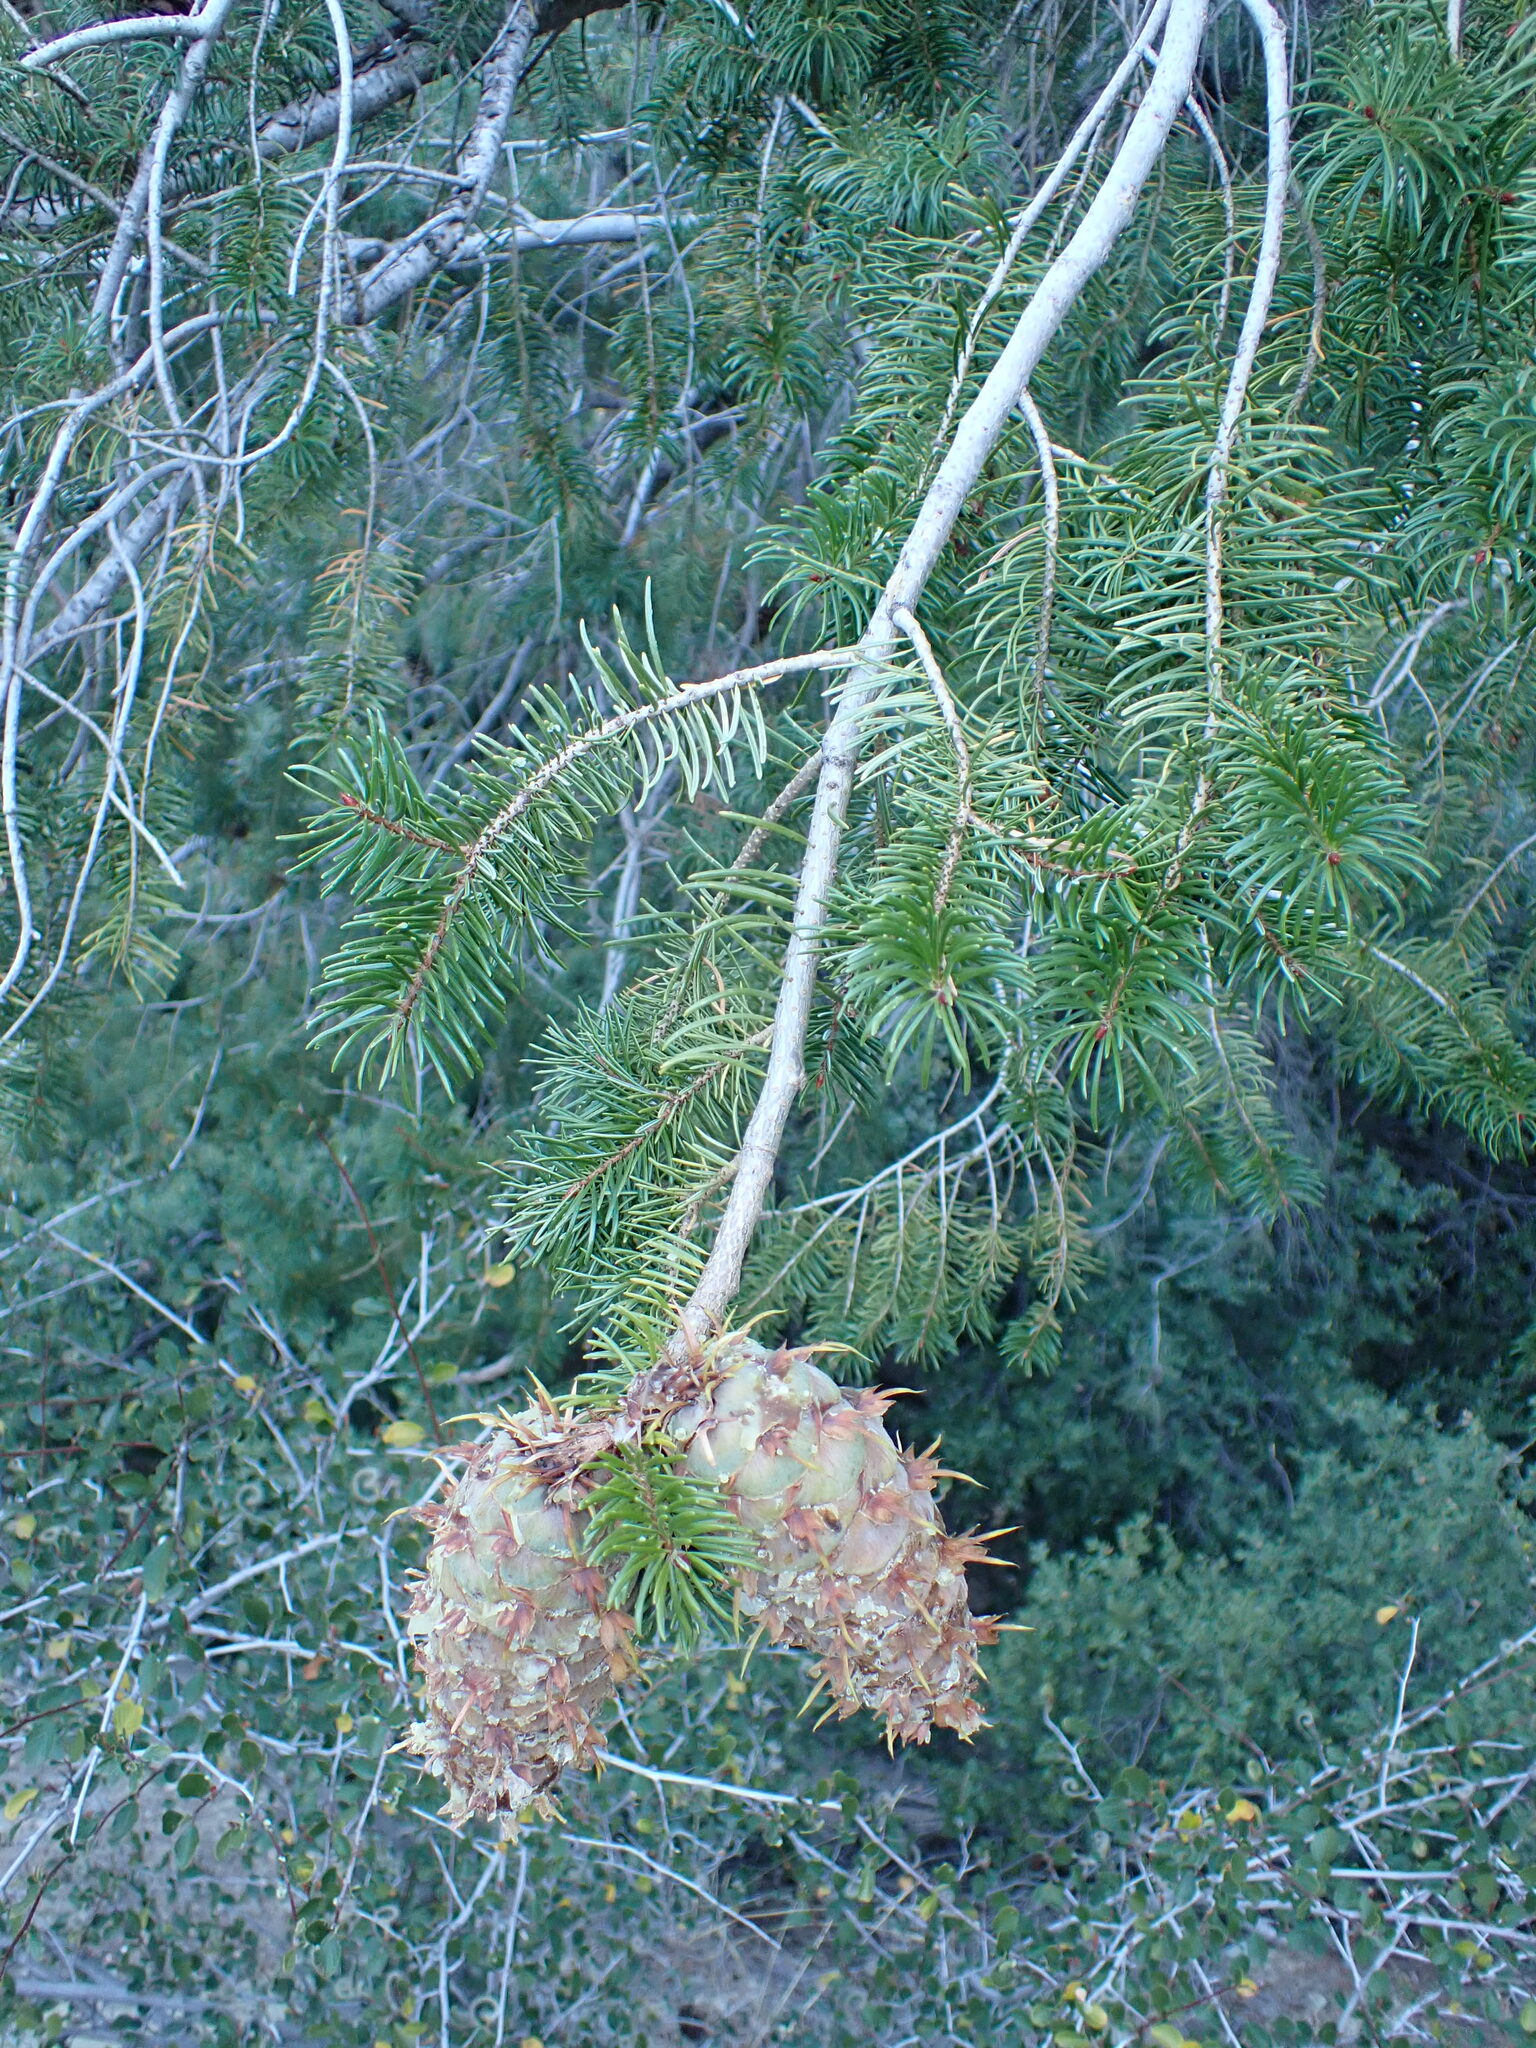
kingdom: Plantae
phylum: Tracheophyta
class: Pinopsida
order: Pinales
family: Pinaceae
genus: Pseudotsuga
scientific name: Pseudotsuga macrocarpa
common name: Big-cone douglas-fir
